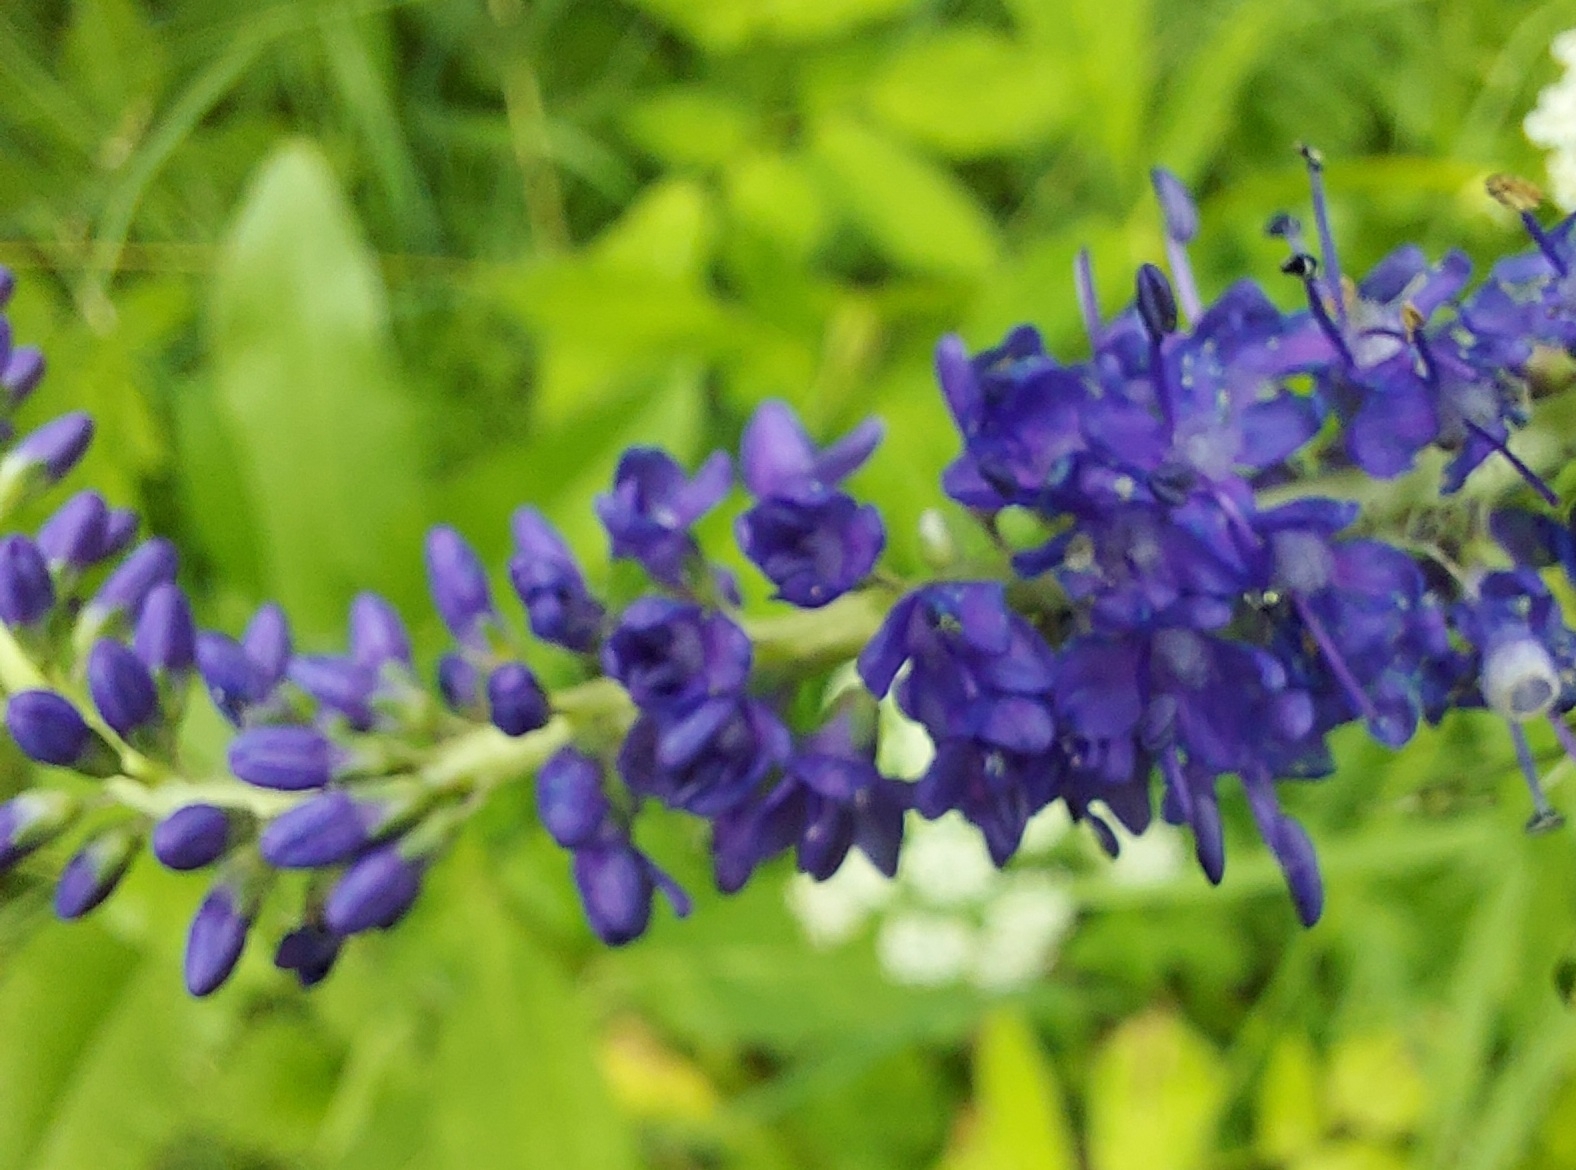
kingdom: Plantae
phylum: Tracheophyta
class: Magnoliopsida
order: Lamiales
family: Plantaginaceae
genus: Veronica
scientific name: Veronica longifolia
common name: Garden speedwell
